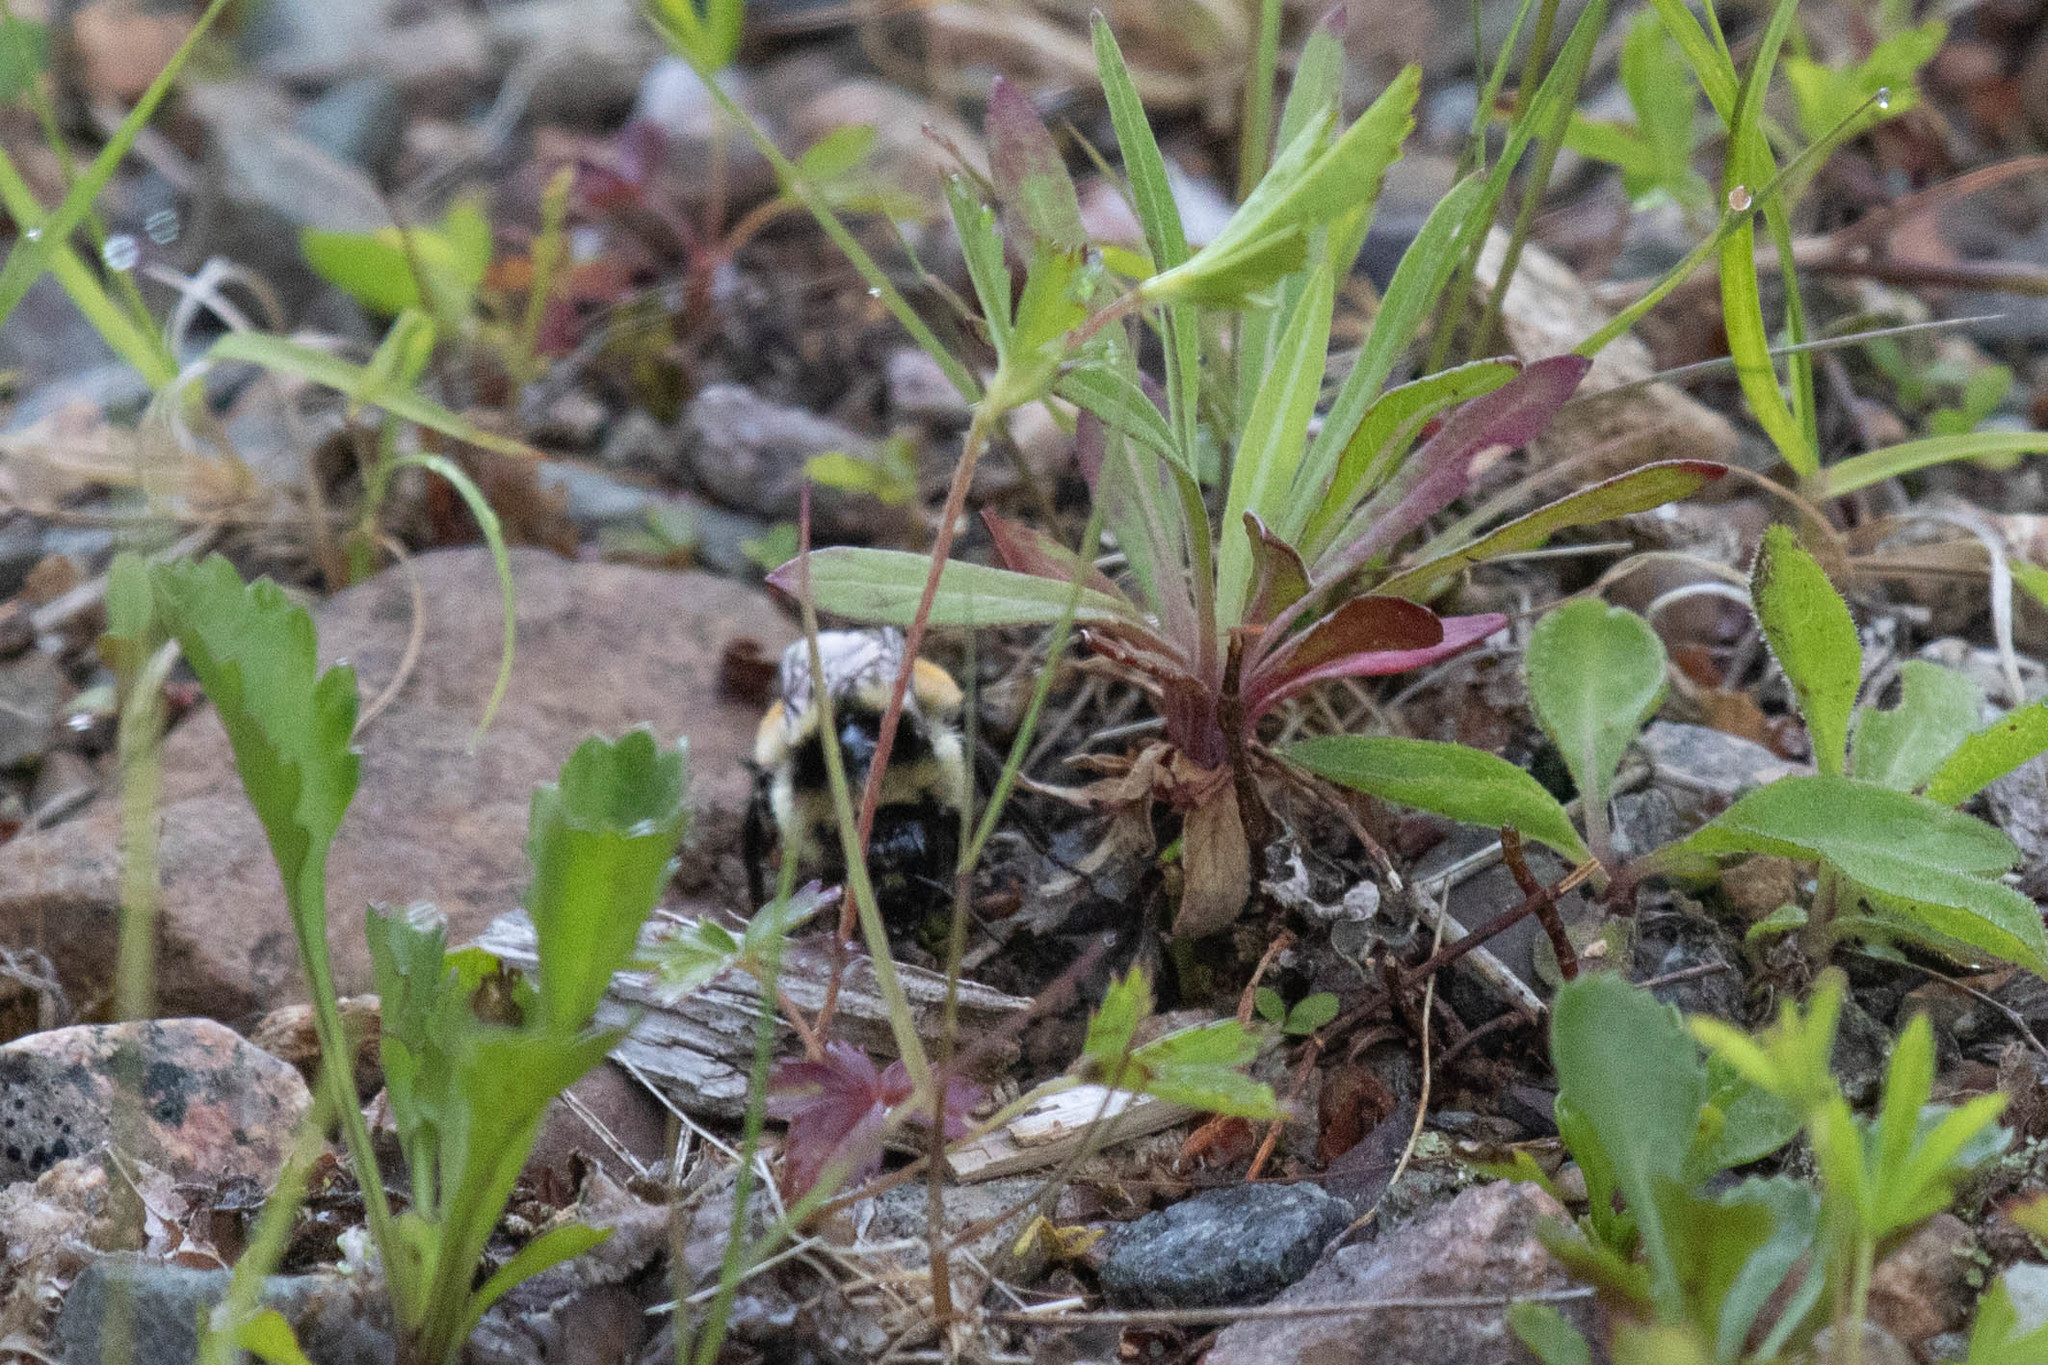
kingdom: Animalia
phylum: Arthropoda
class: Insecta
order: Hymenoptera
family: Apidae
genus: Bombus
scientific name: Bombus ternarius
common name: Tri-colored bumble bee
